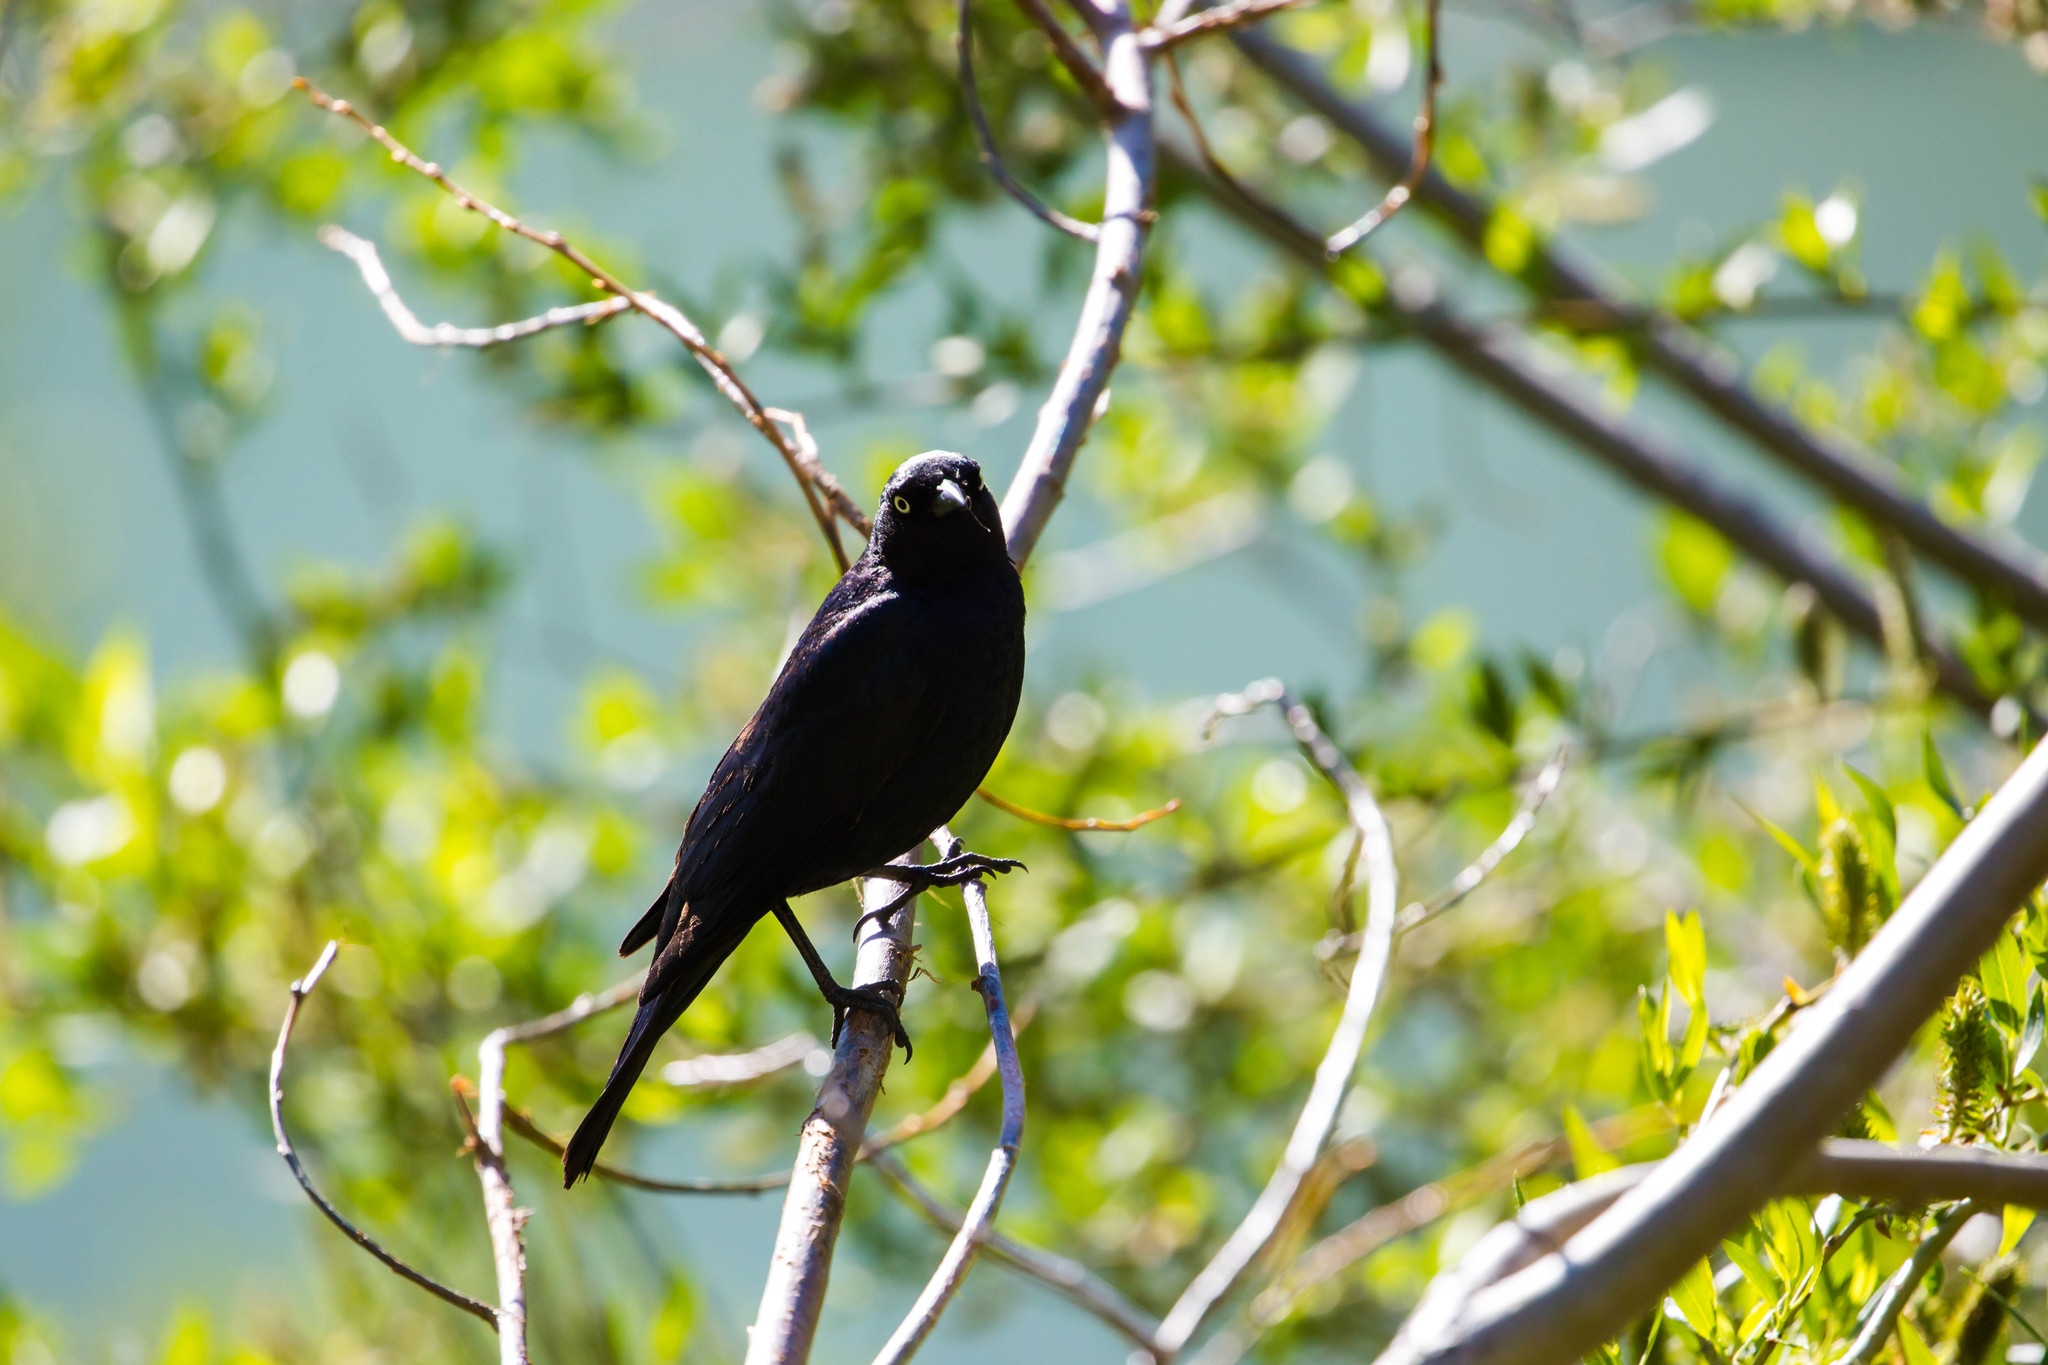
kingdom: Animalia
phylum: Chordata
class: Aves
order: Passeriformes
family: Icteridae
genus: Euphagus
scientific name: Euphagus cyanocephalus
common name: Brewer's blackbird
